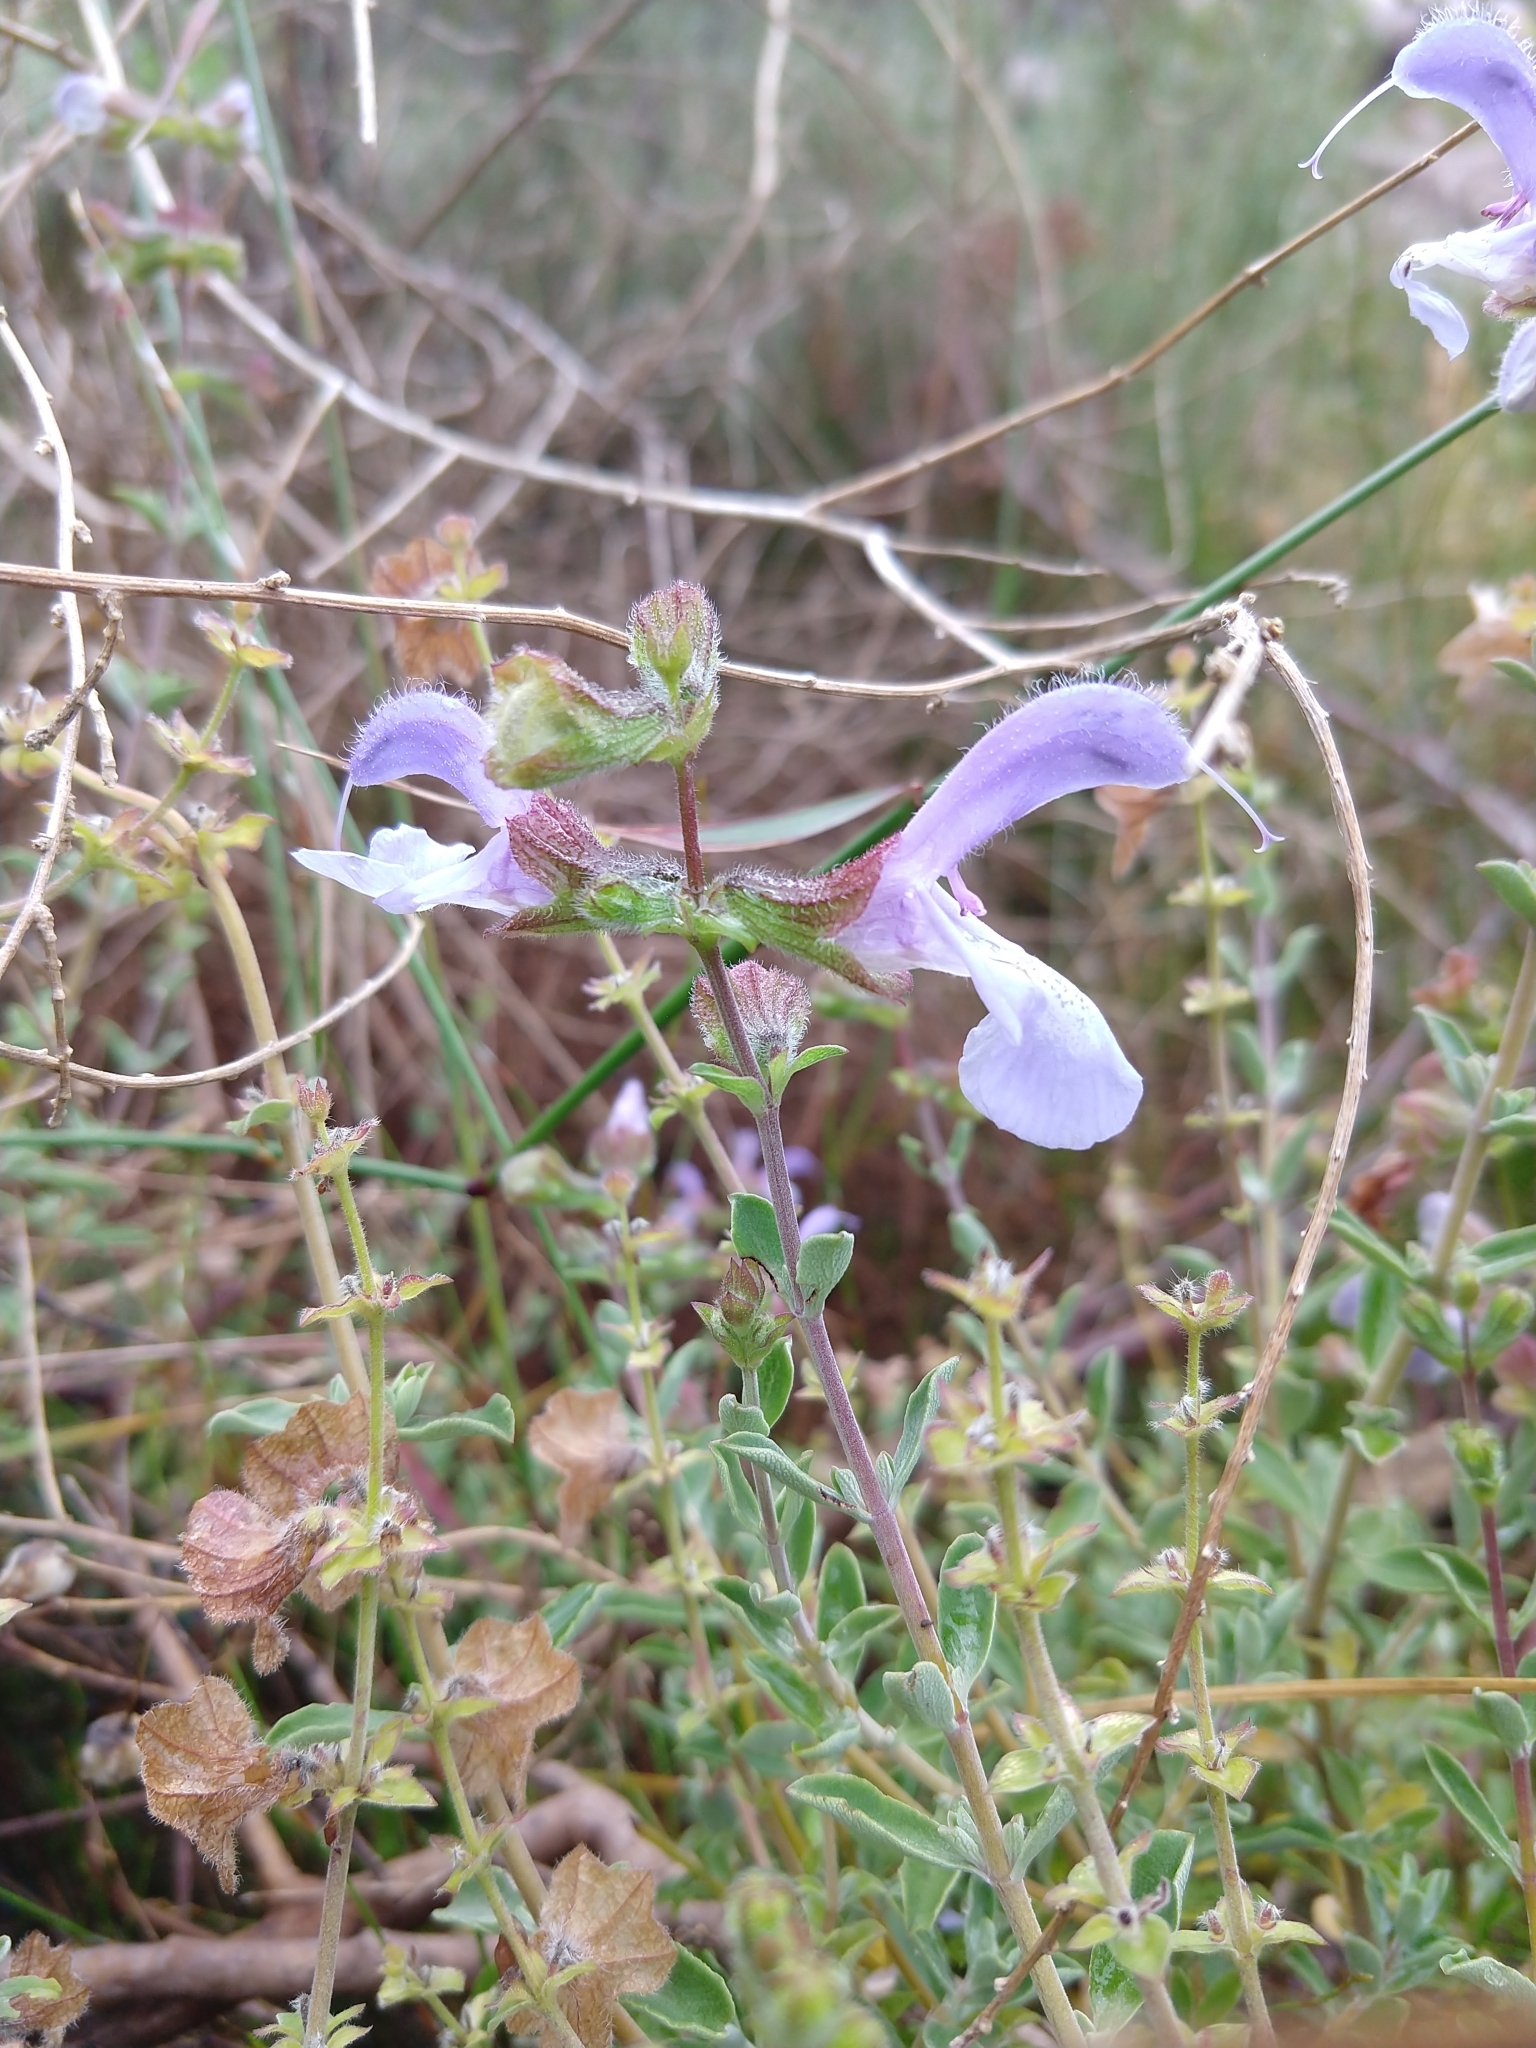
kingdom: Plantae
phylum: Tracheophyta
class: Magnoliopsida
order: Lamiales
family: Lamiaceae
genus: Salvia
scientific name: Salvia africana
